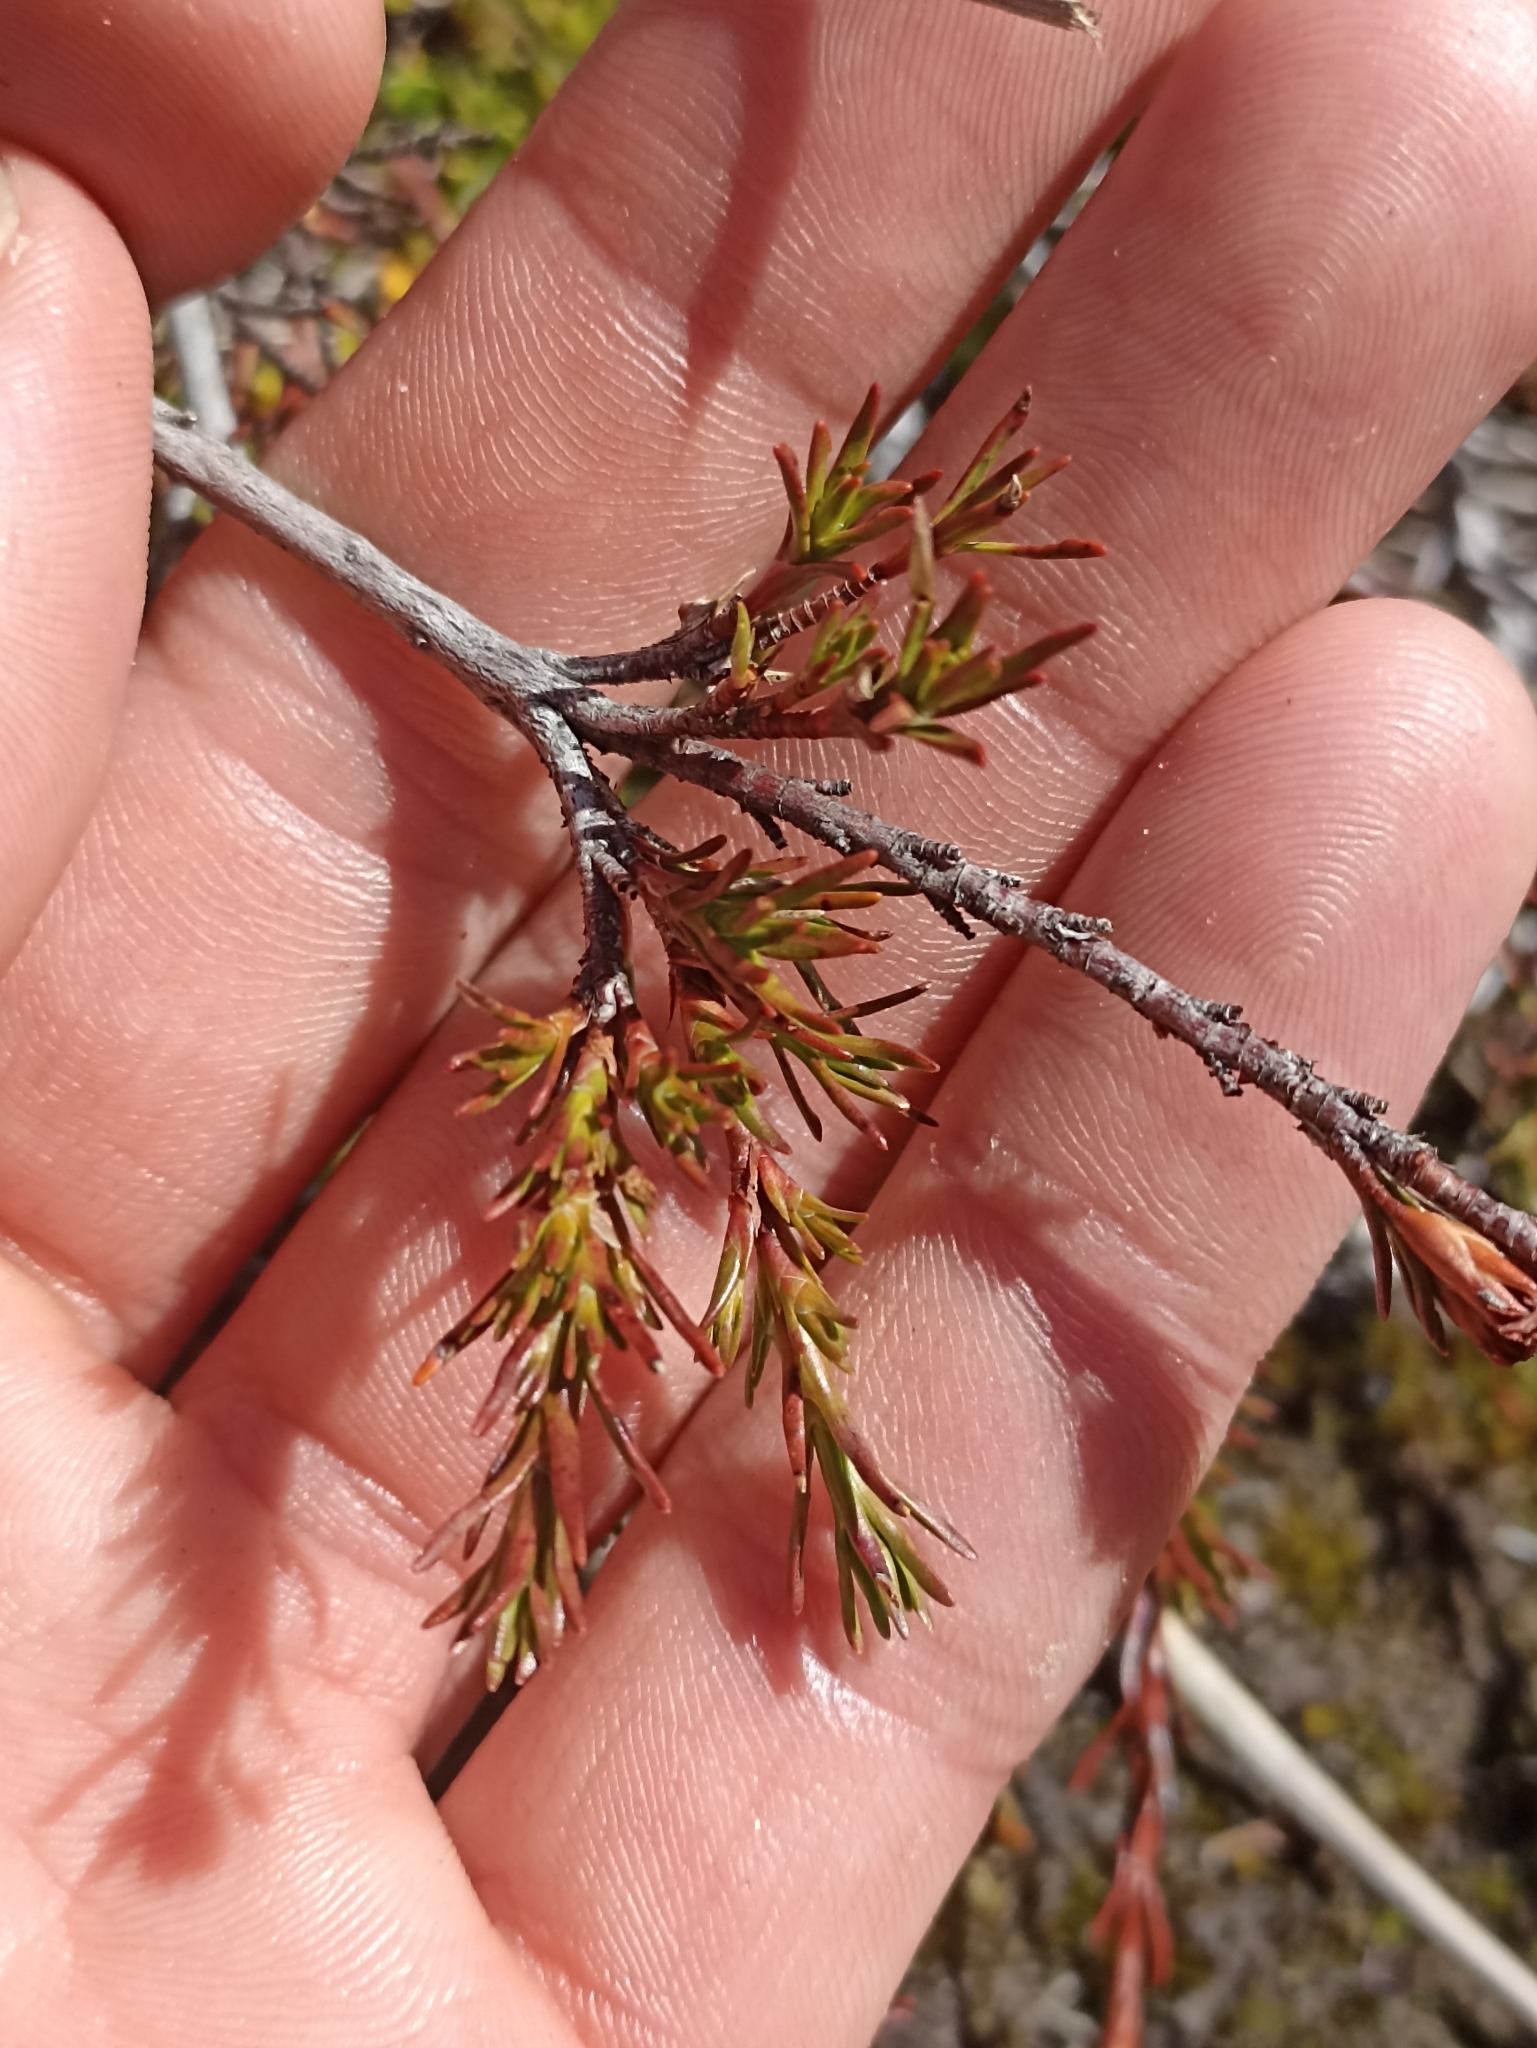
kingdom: Plantae
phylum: Tracheophyta
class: Magnoliopsida
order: Ericales
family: Ericaceae
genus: Dracophyllum
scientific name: Dracophyllum pronum
